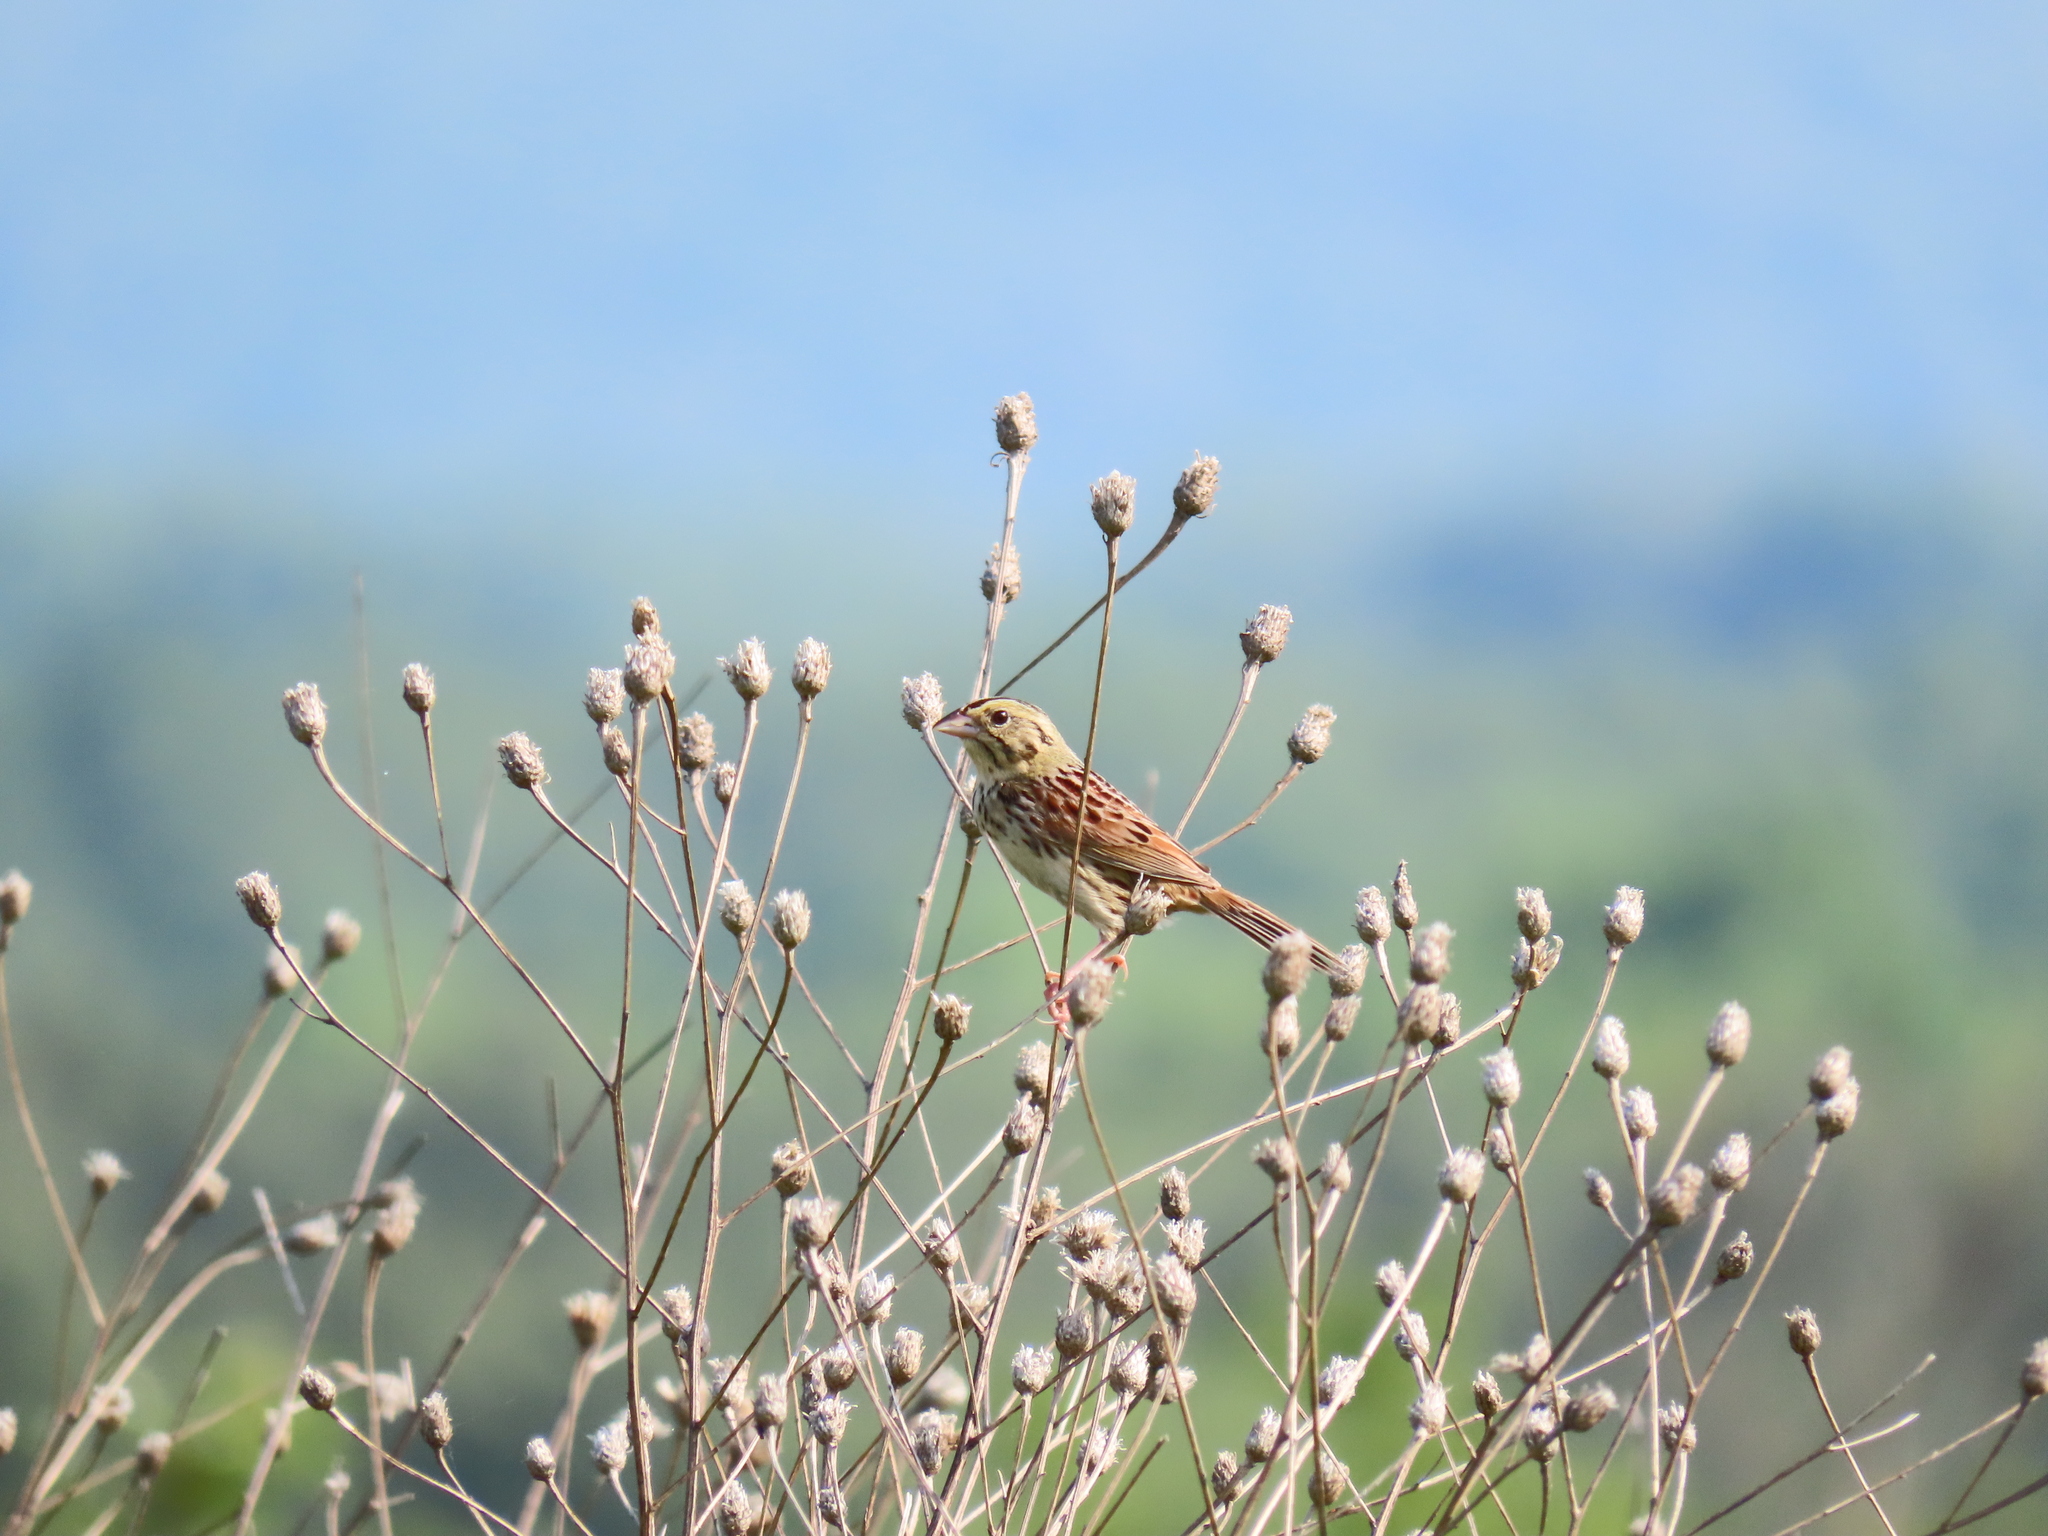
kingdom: Animalia
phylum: Chordata
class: Aves
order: Passeriformes
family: Passerellidae
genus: Centronyx
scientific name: Centronyx henslowii
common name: Henslow's sparrow
